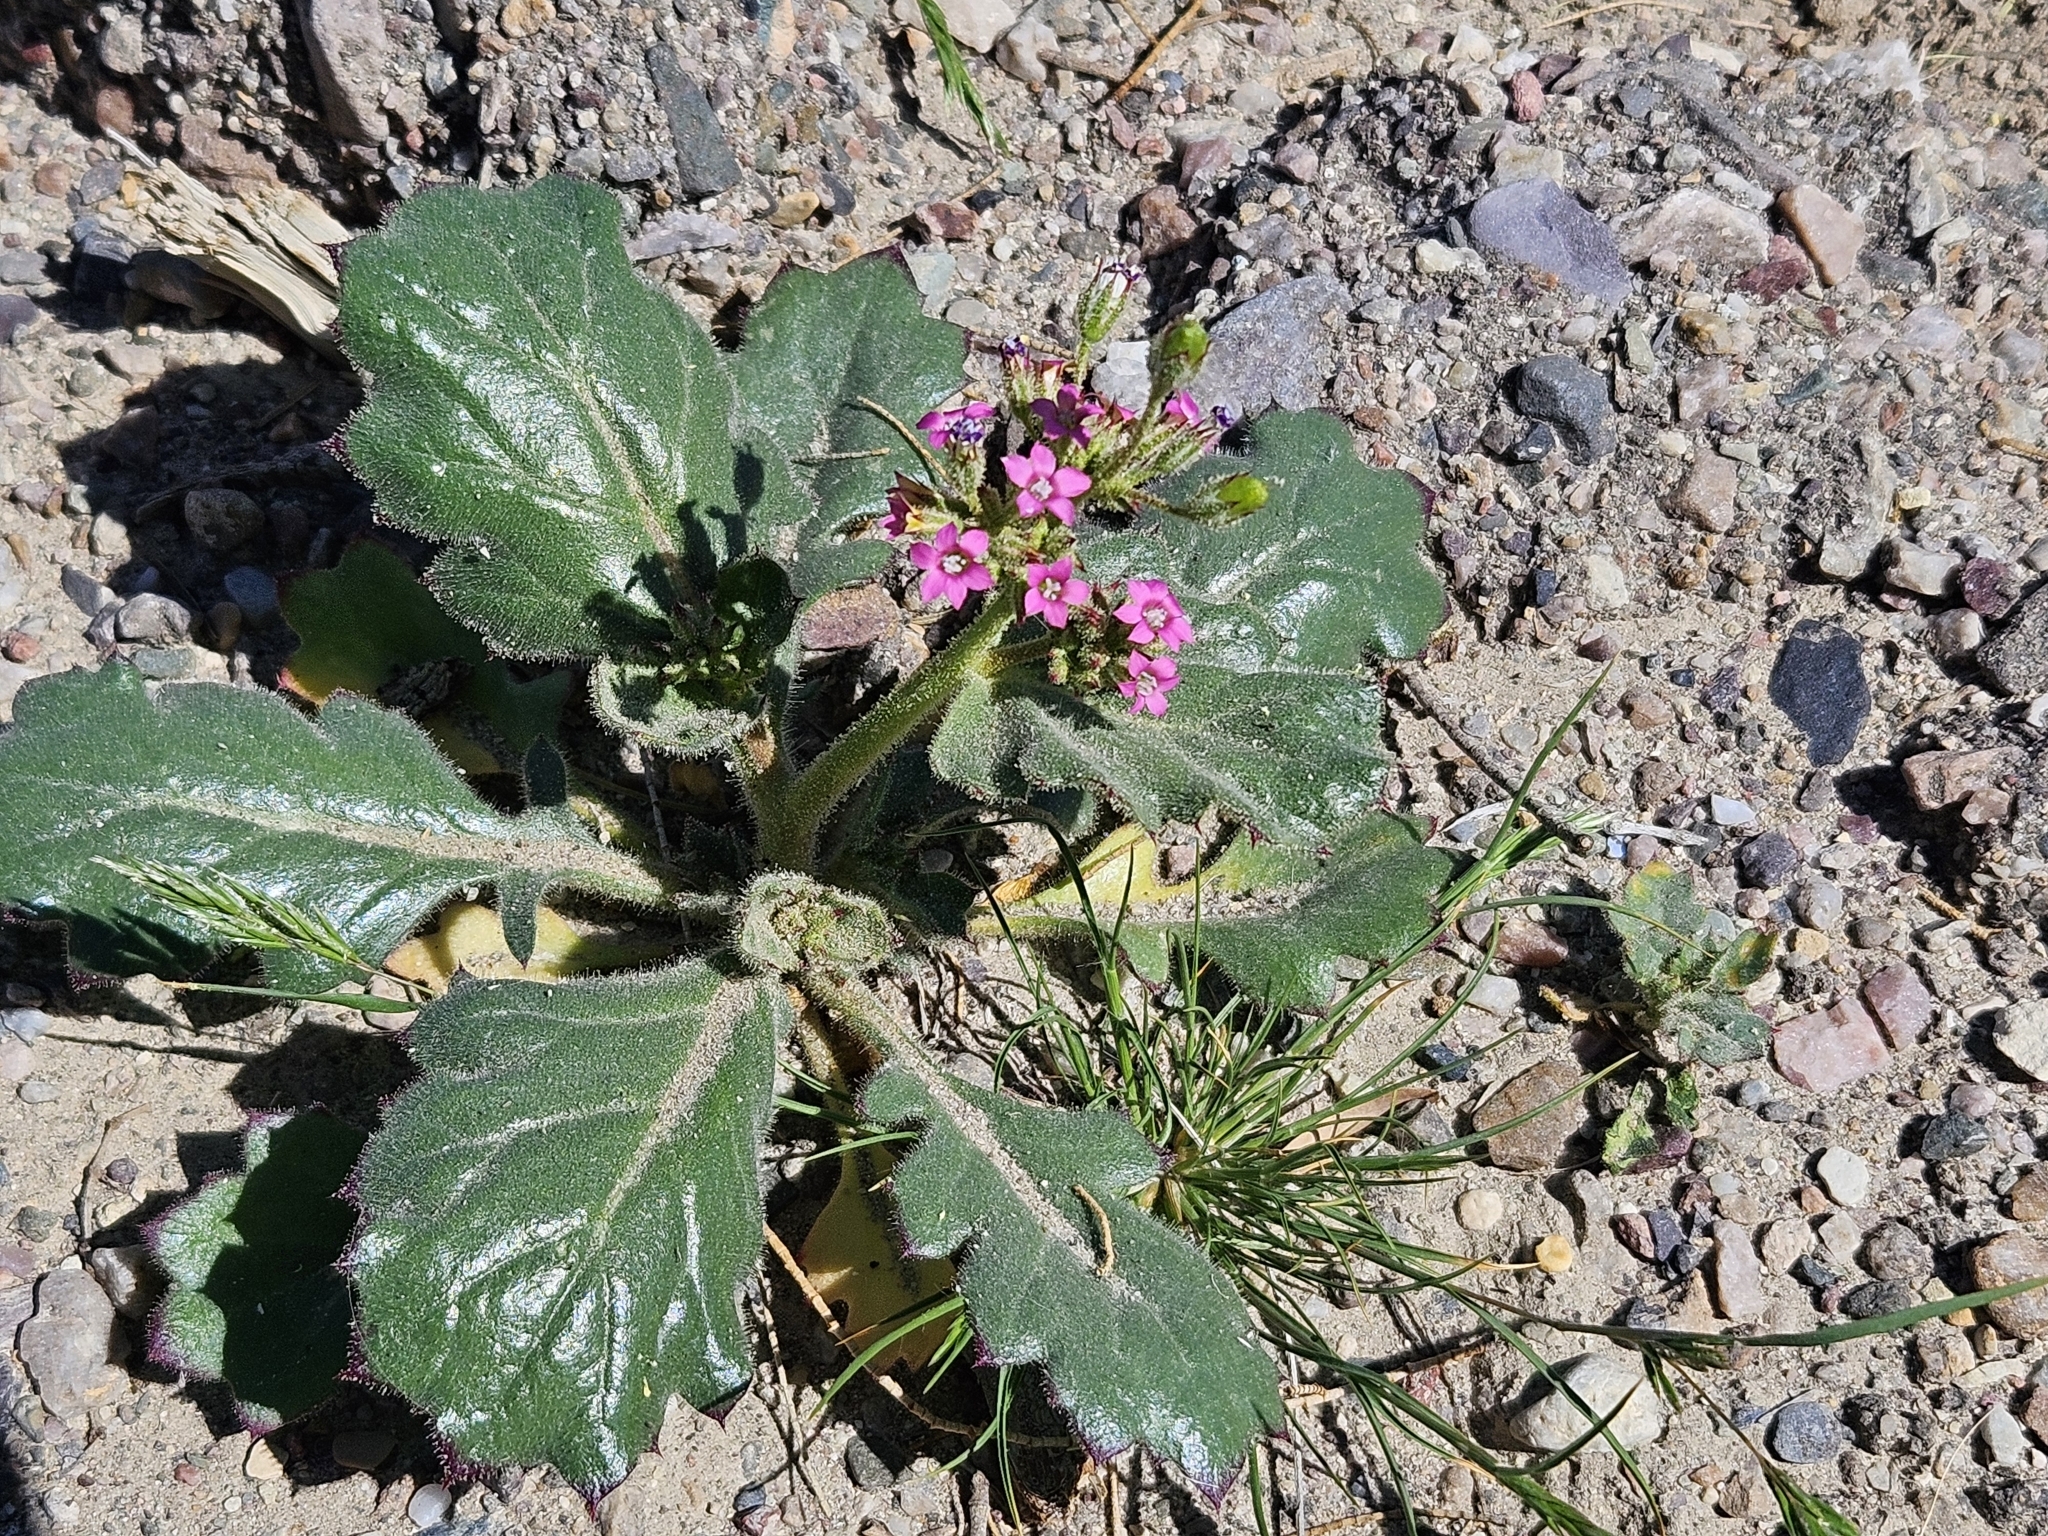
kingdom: Plantae
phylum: Tracheophyta
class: Magnoliopsida
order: Ericales
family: Polemoniaceae
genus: Aliciella
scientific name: Aliciella latifolia
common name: Broad-leaf gilia
